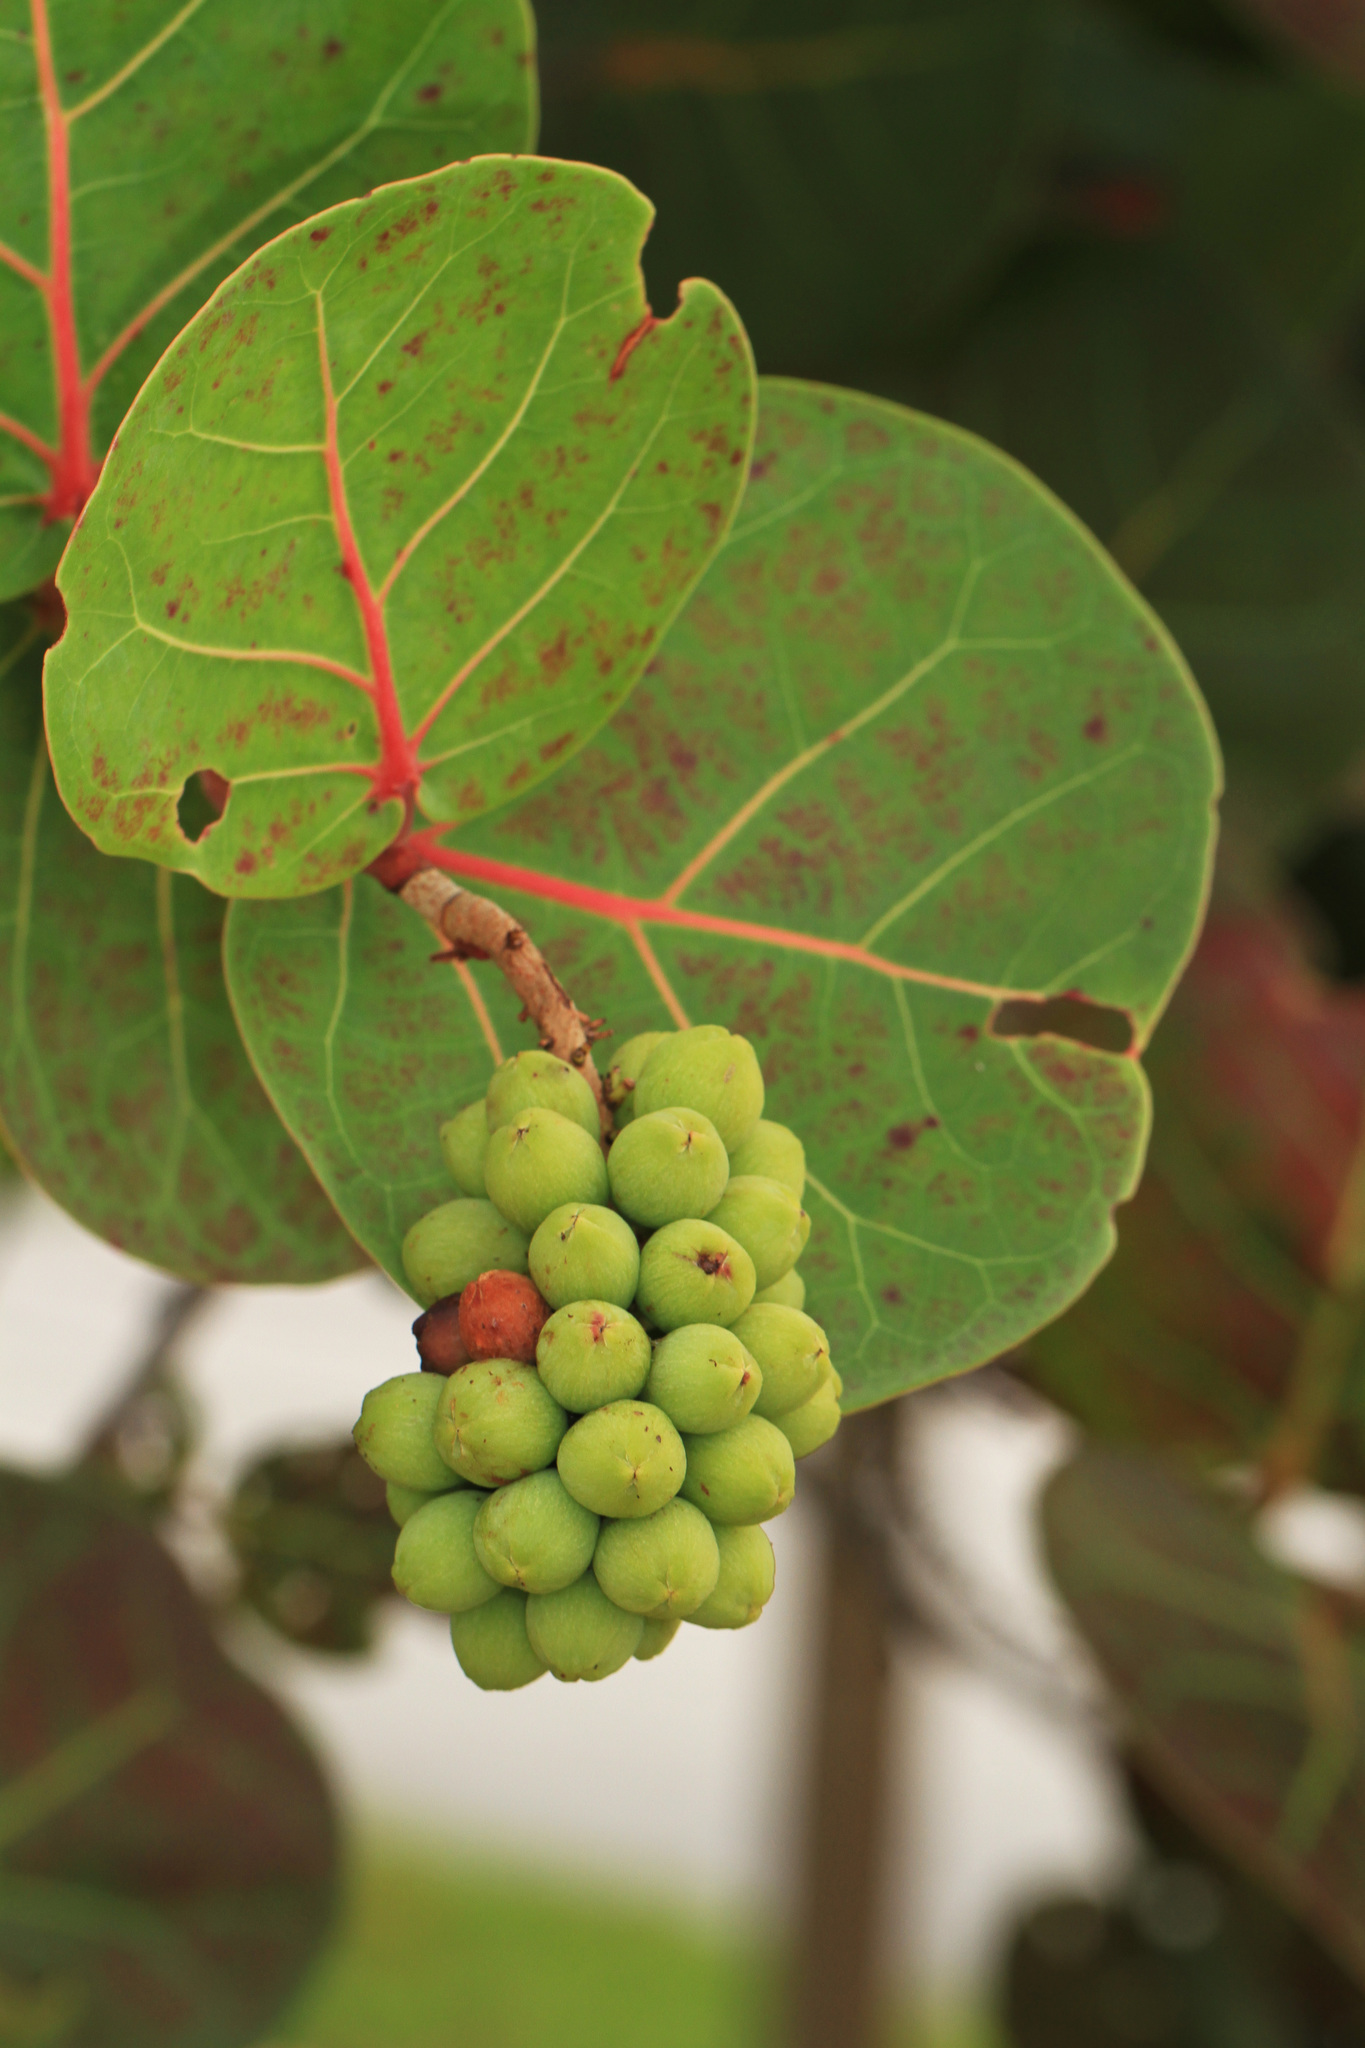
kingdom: Plantae
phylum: Tracheophyta
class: Magnoliopsida
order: Caryophyllales
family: Polygonaceae
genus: Coccoloba
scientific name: Coccoloba uvifera
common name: Seagrape
